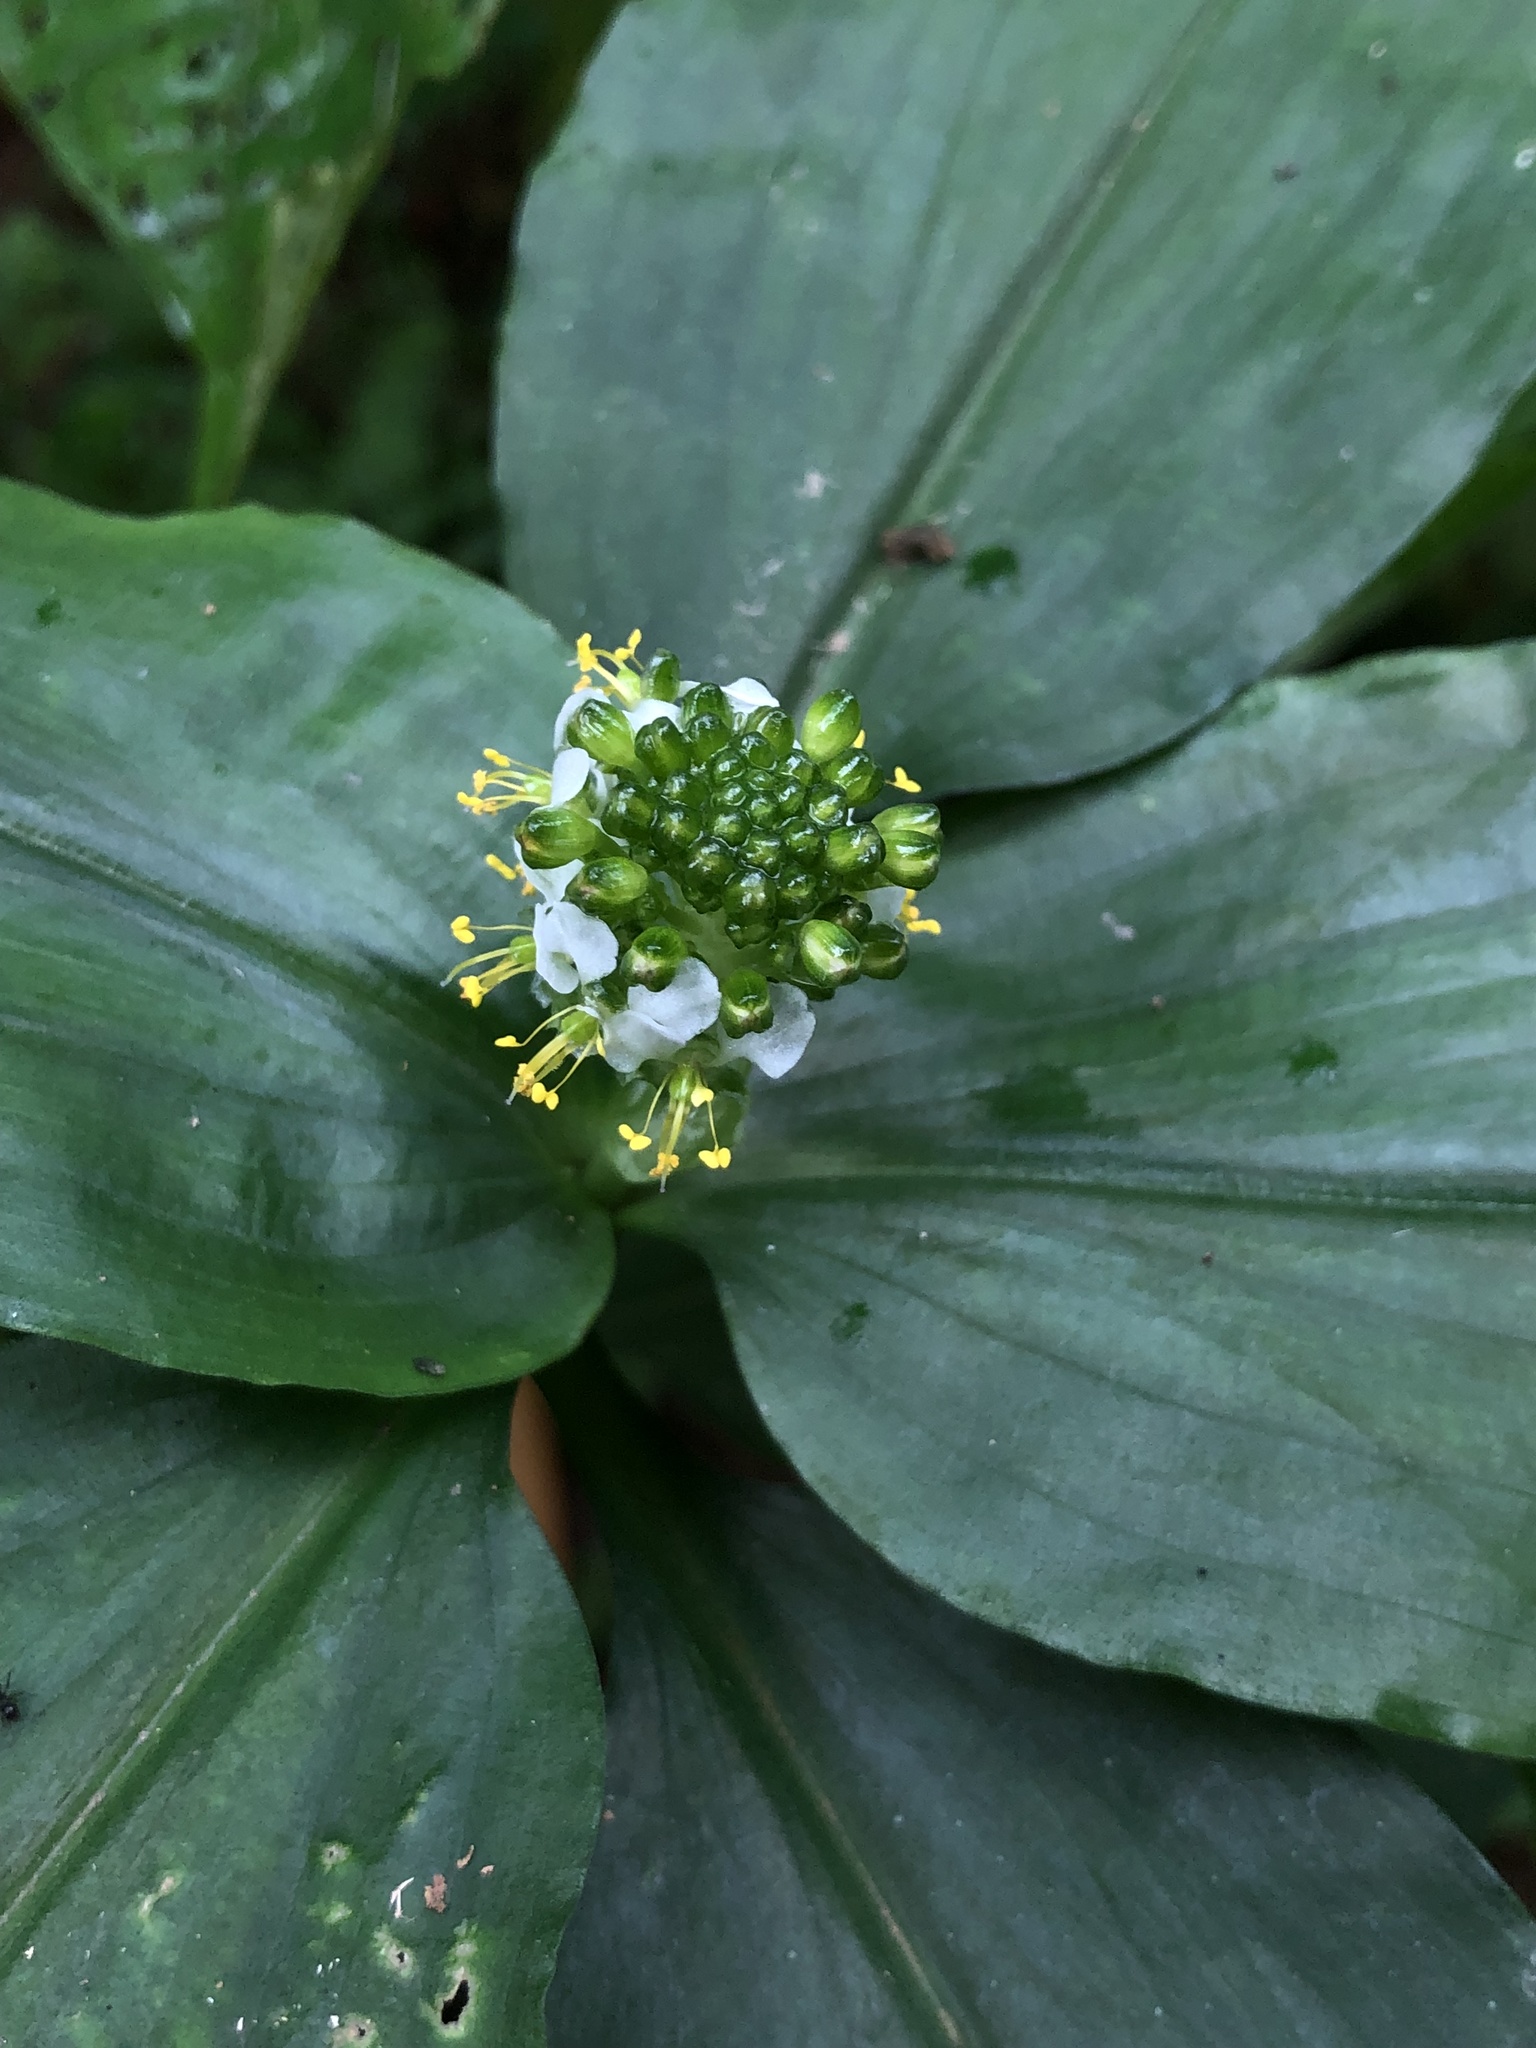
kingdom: Plantae
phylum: Tracheophyta
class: Liliopsida
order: Commelinales
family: Commelinaceae
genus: Aneilema
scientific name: Aneilema umbrosum
